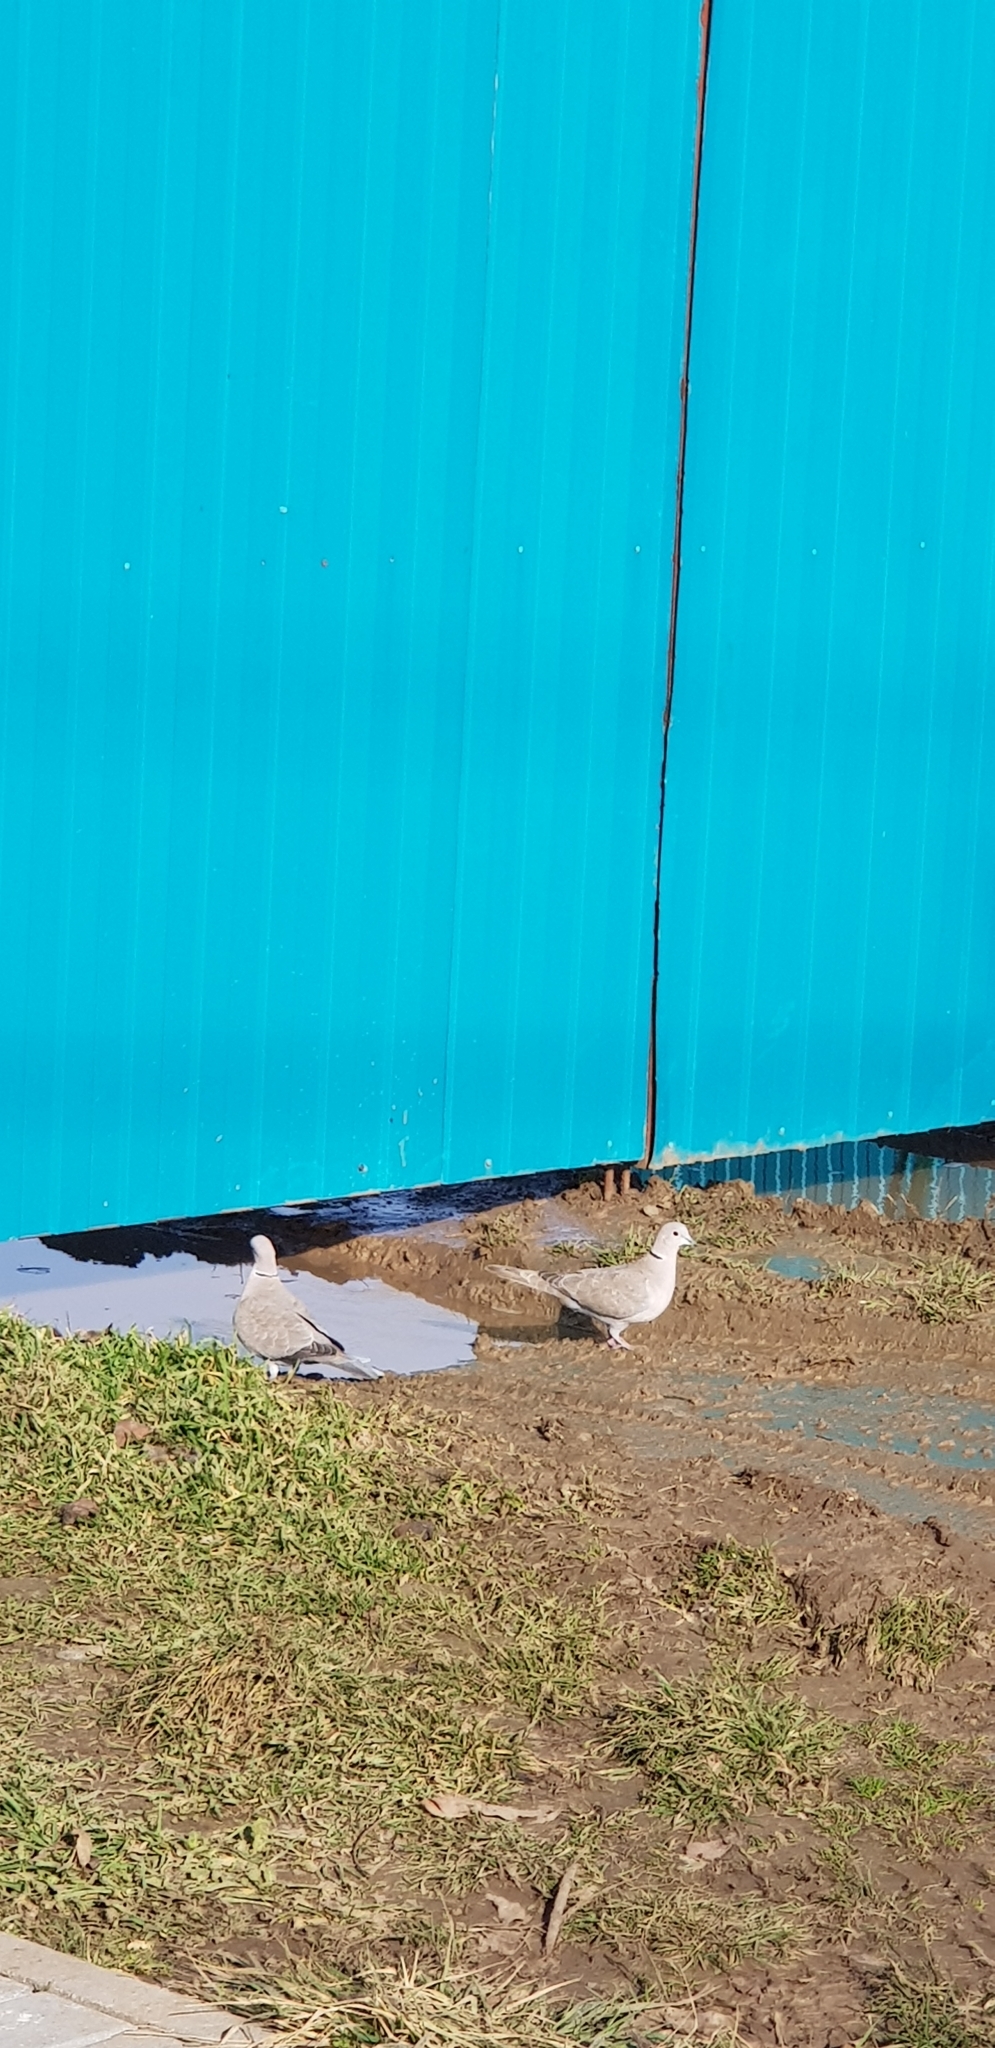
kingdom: Animalia
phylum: Chordata
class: Aves
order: Columbiformes
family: Columbidae
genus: Streptopelia
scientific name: Streptopelia decaocto
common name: Eurasian collared dove
